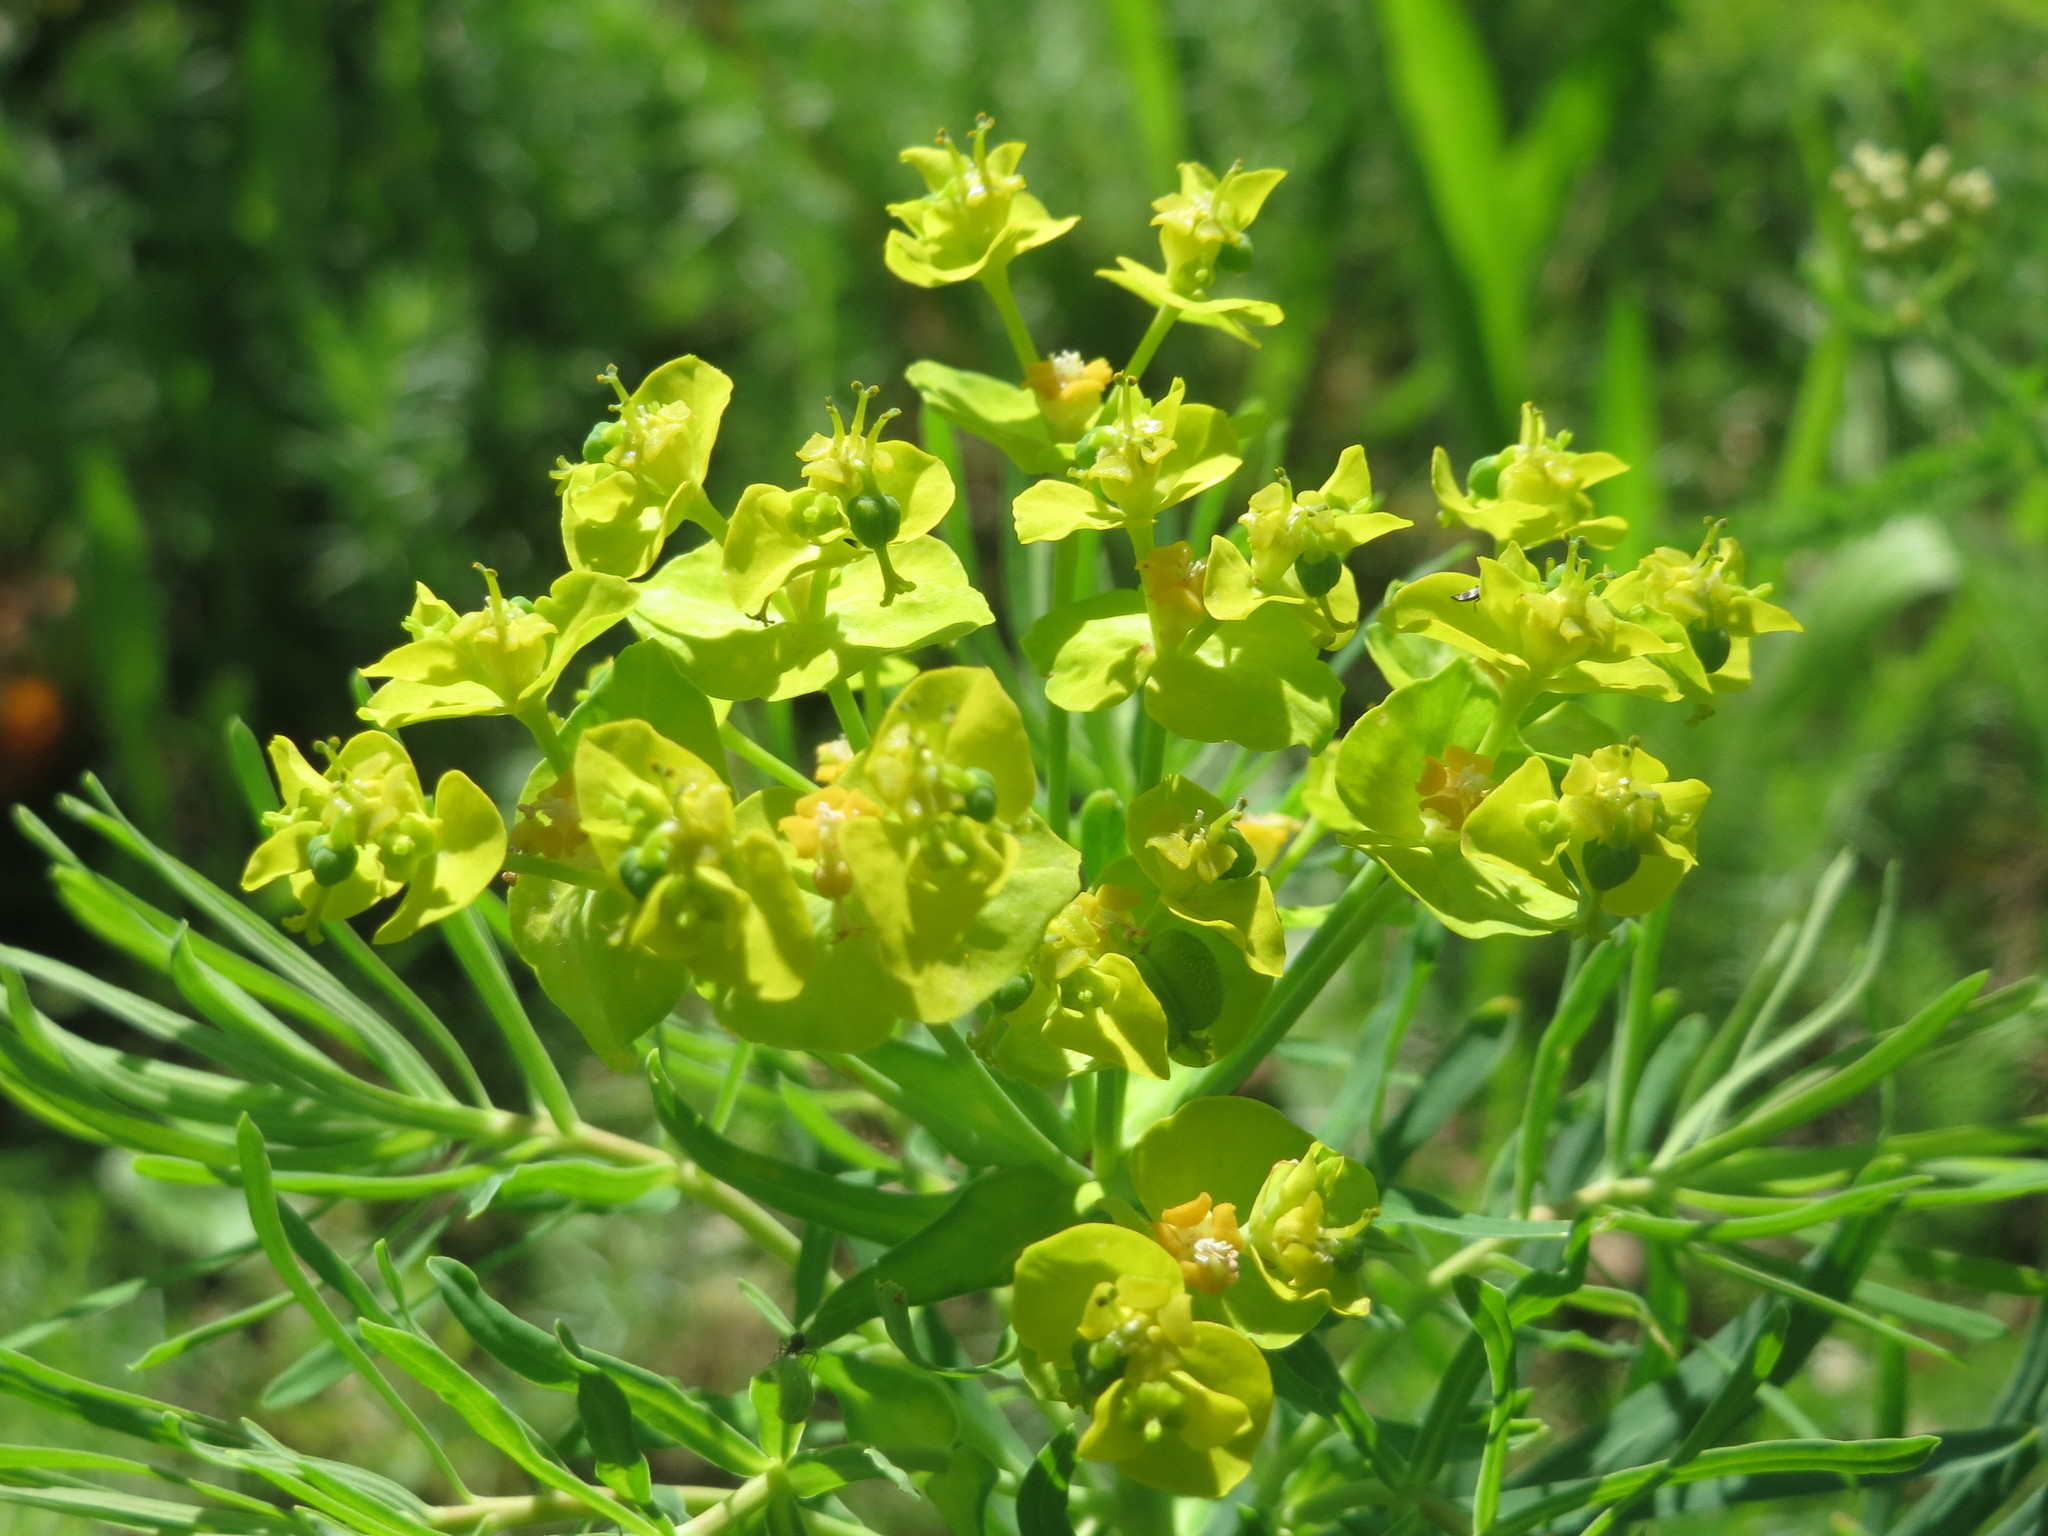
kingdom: Plantae
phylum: Tracheophyta
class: Magnoliopsida
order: Malpighiales
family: Euphorbiaceae
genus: Euphorbia
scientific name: Euphorbia cyparissias
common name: Cypress spurge
